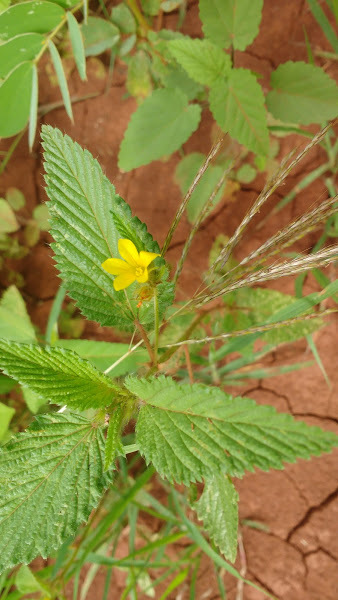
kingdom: Plantae
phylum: Tracheophyta
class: Magnoliopsida
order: Malvales
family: Malvaceae
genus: Melochia
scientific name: Melochia longidentata
